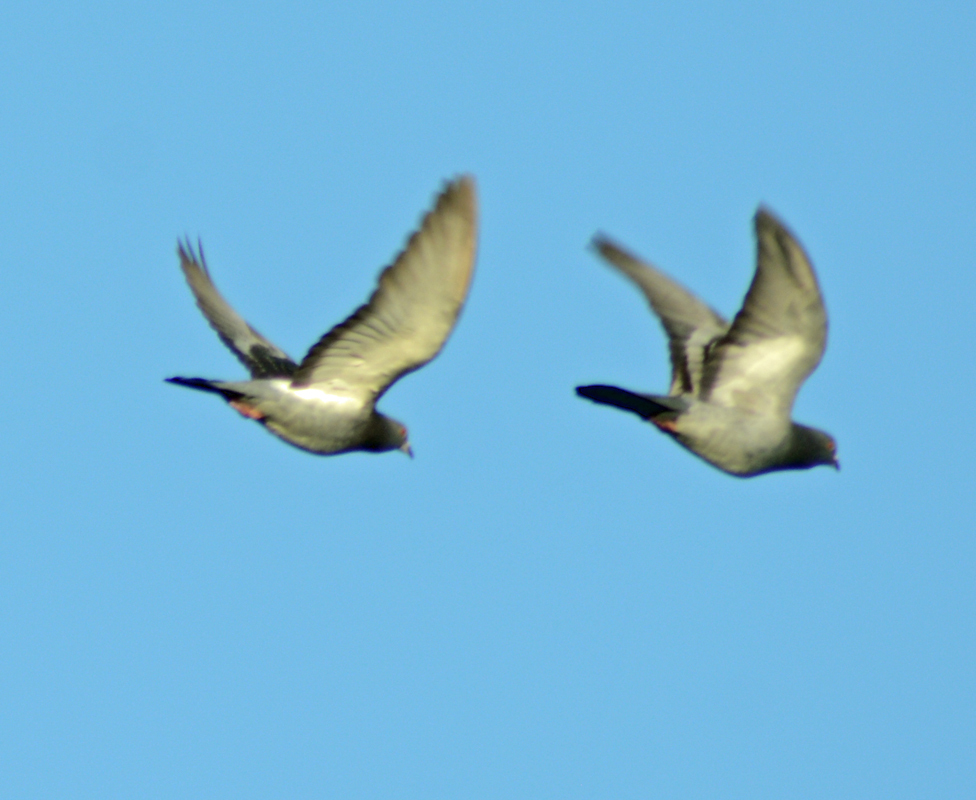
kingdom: Animalia
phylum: Chordata
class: Aves
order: Columbiformes
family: Columbidae
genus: Columba
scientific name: Columba livia
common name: Rock pigeon
